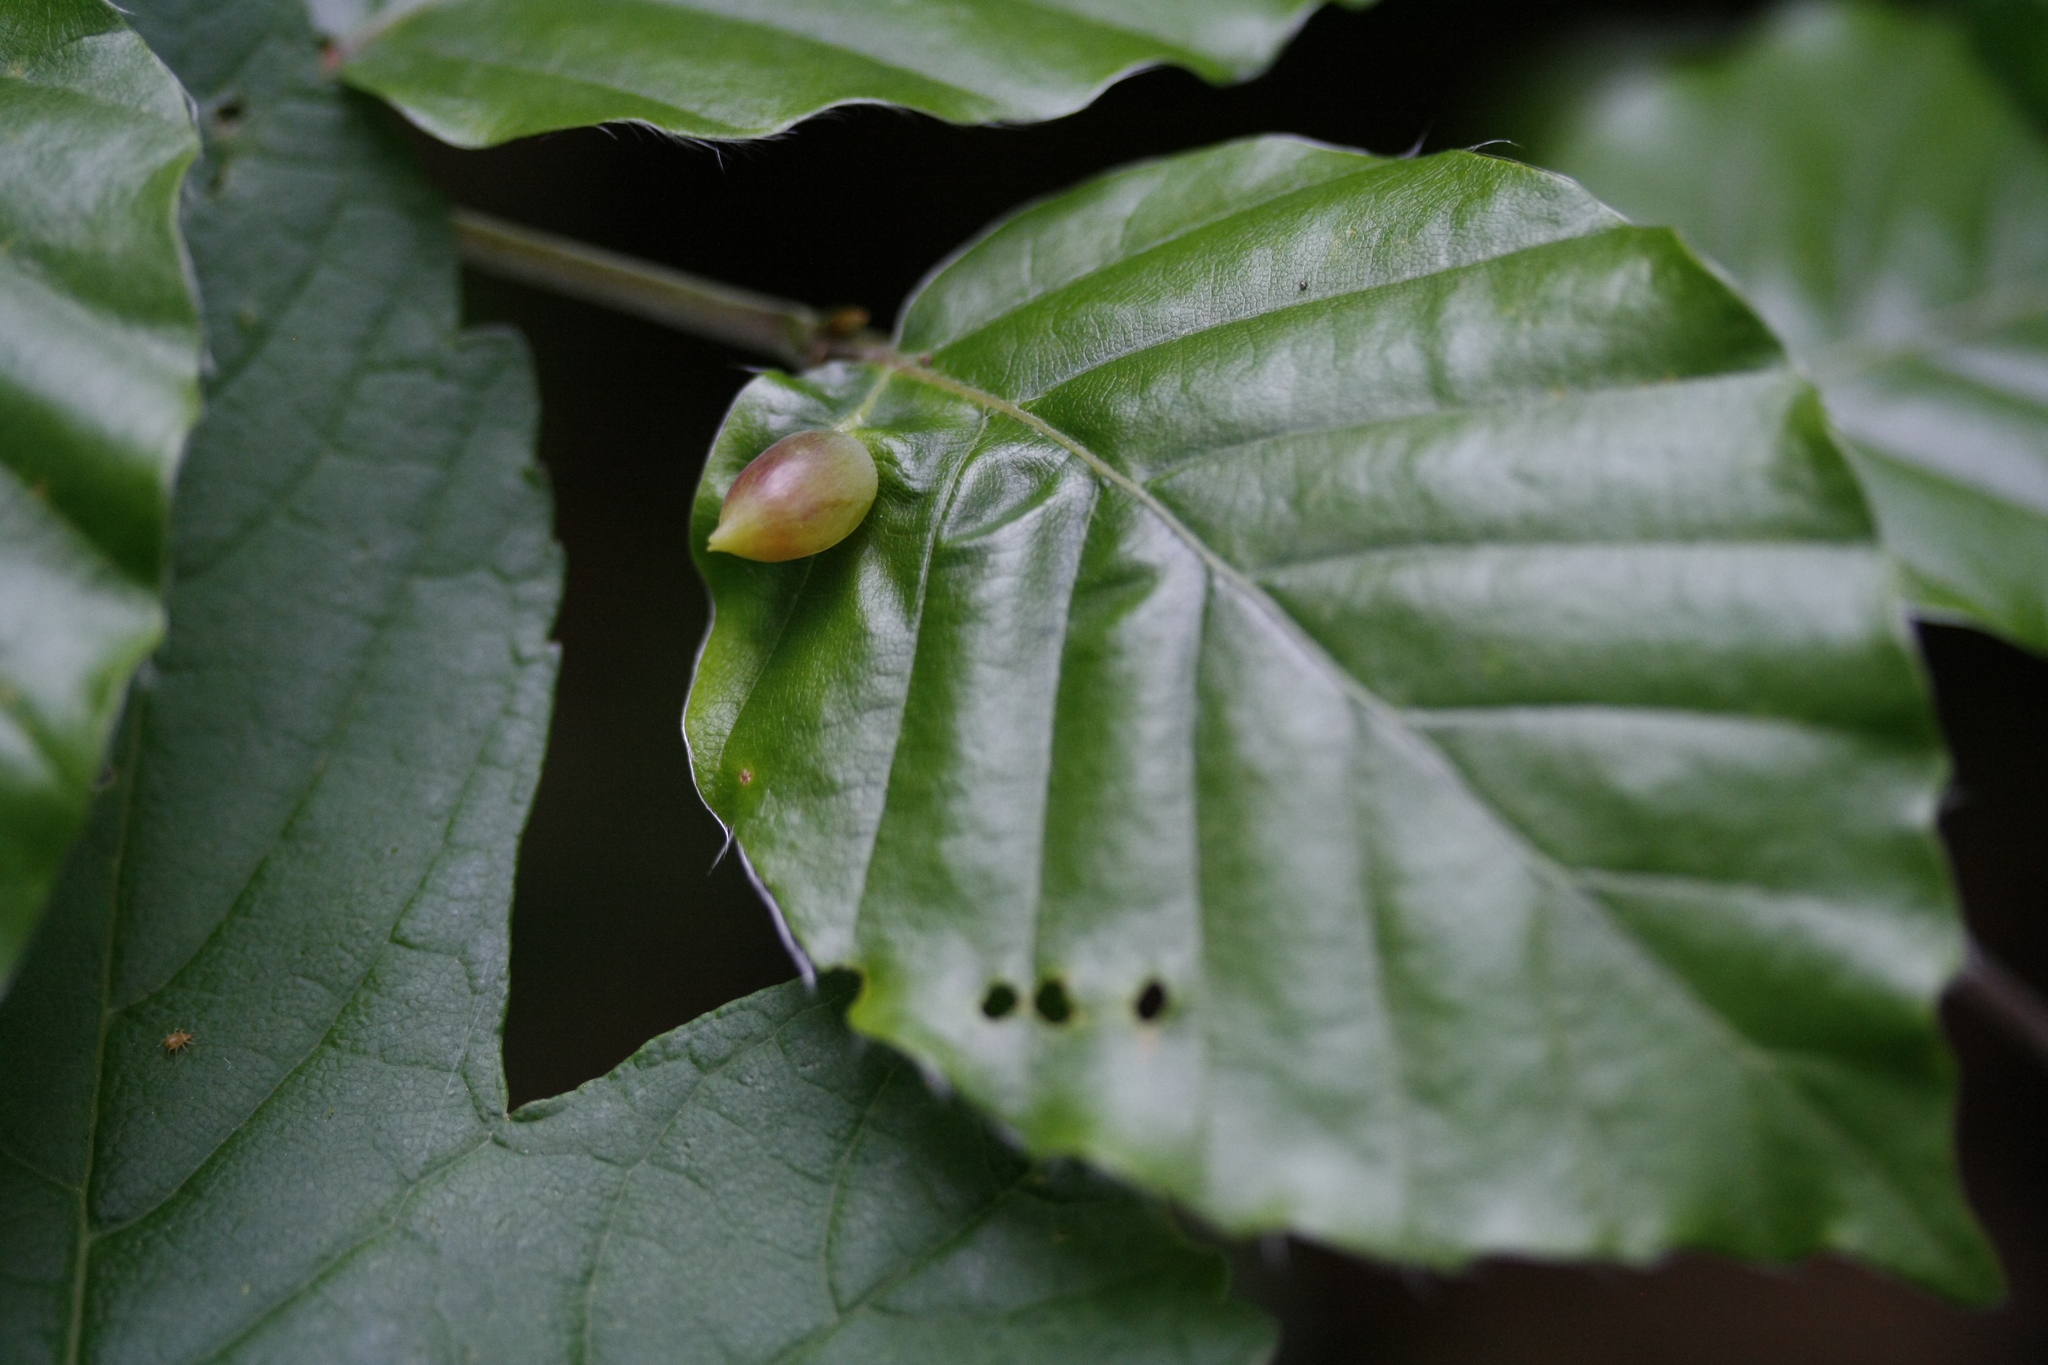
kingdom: Animalia
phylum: Arthropoda
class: Insecta
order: Diptera
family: Cecidomyiidae
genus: Mikiola
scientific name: Mikiola fagi
